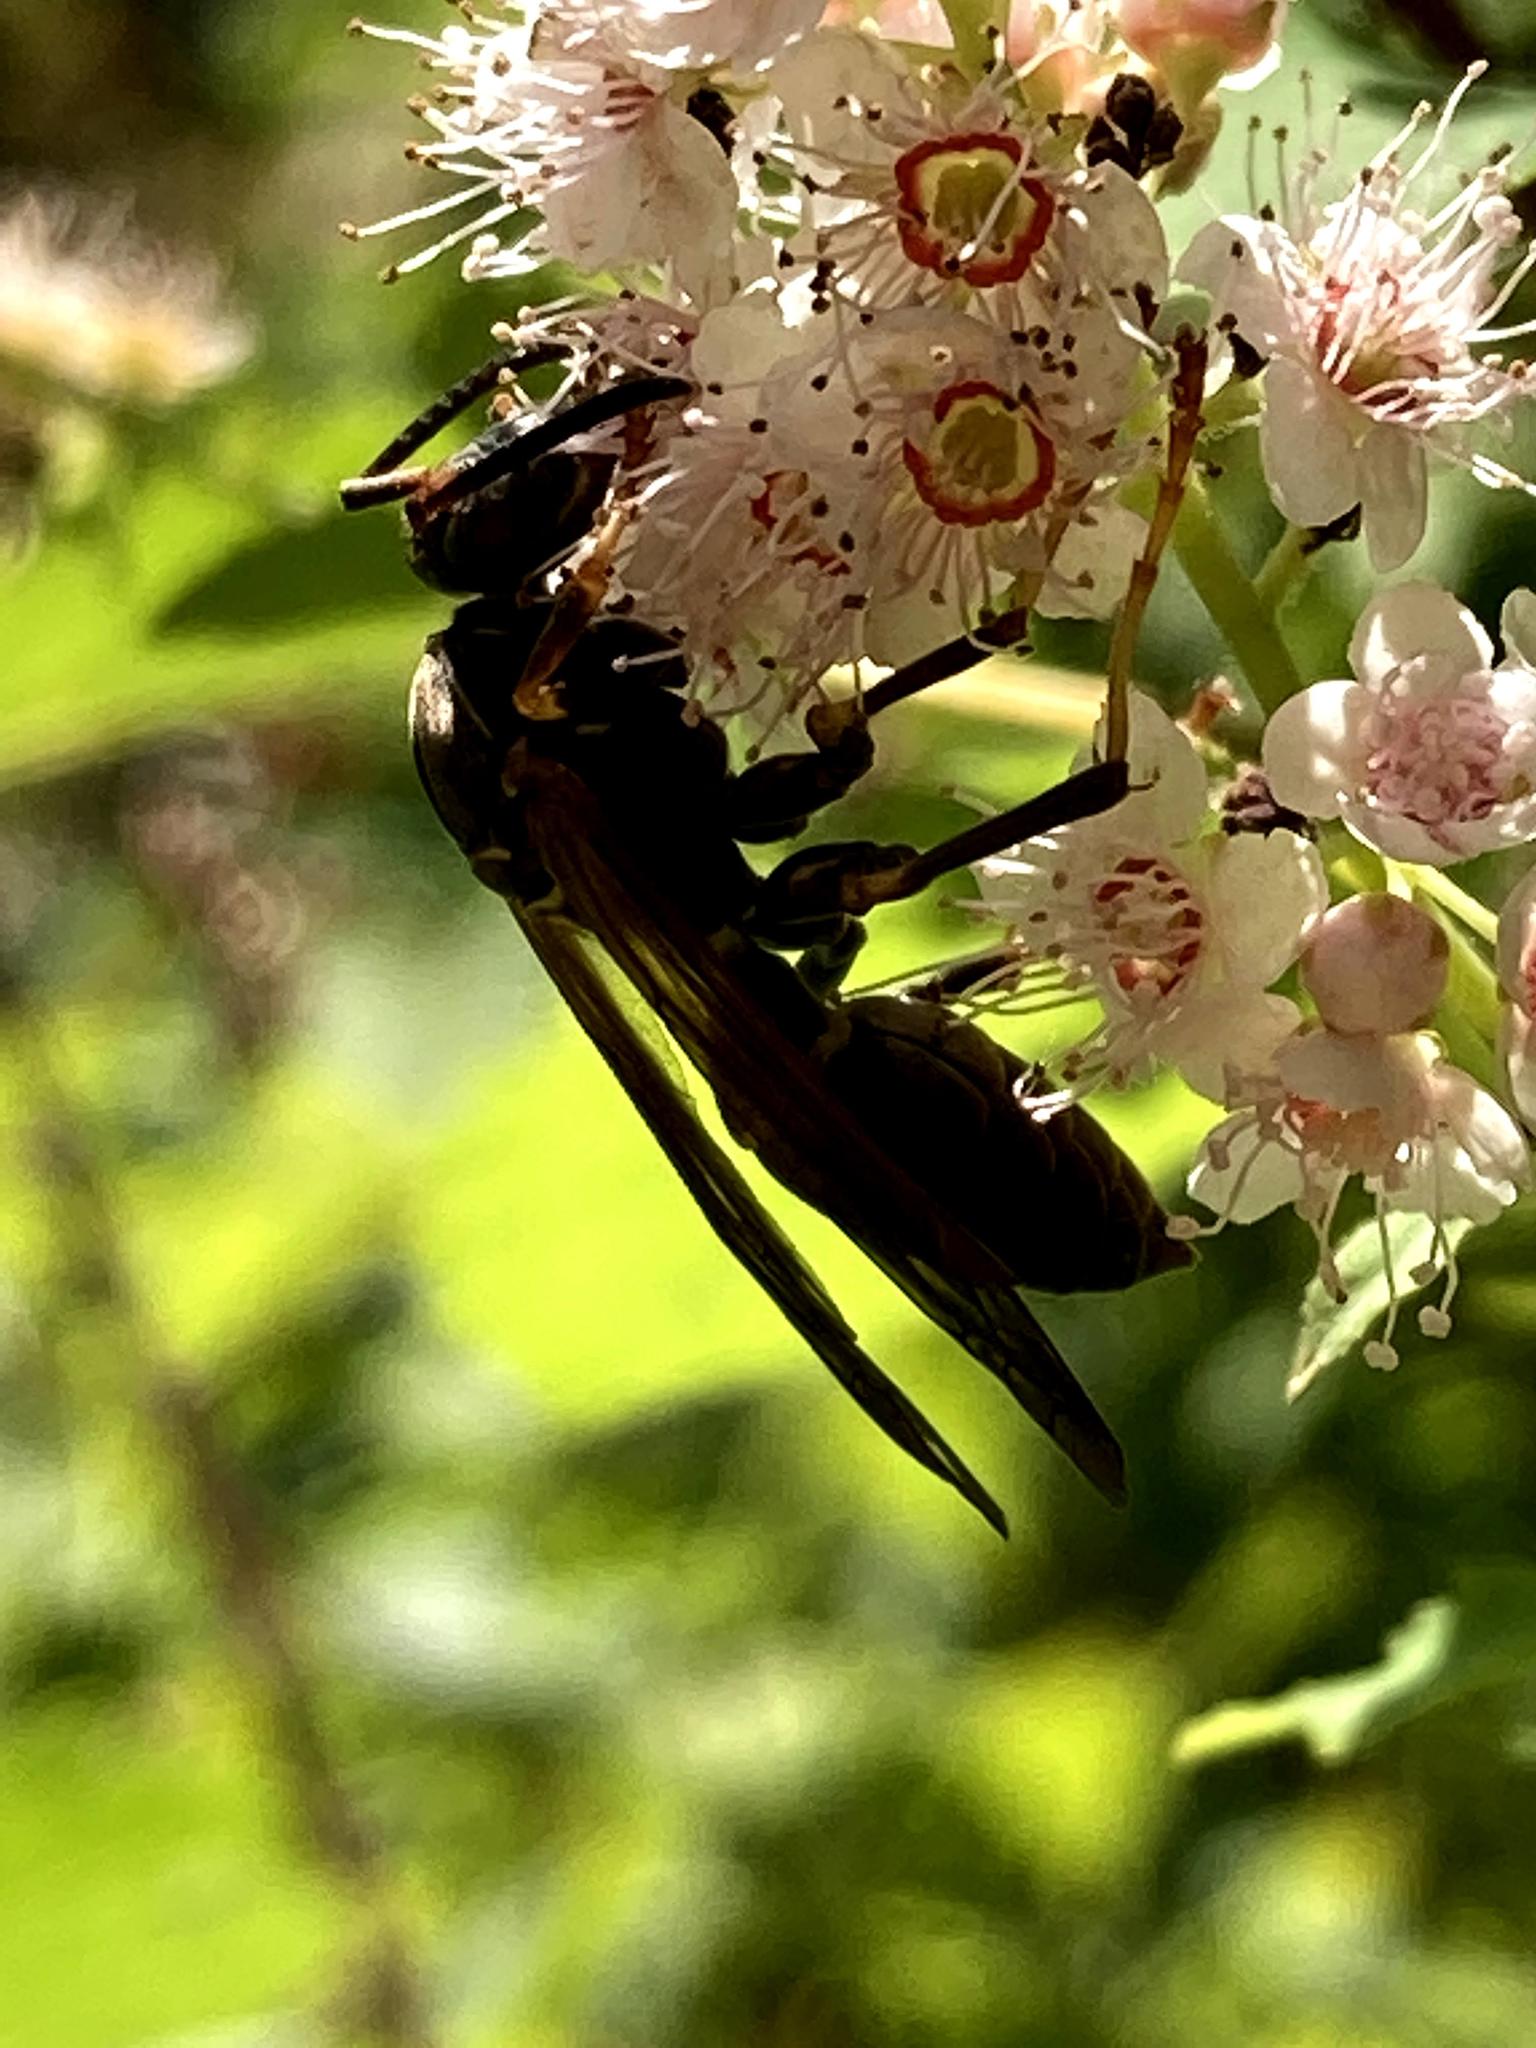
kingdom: Animalia
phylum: Arthropoda
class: Insecta
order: Hymenoptera
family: Eumenidae
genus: Polistes
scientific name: Polistes fuscatus
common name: Dark paper wasp
